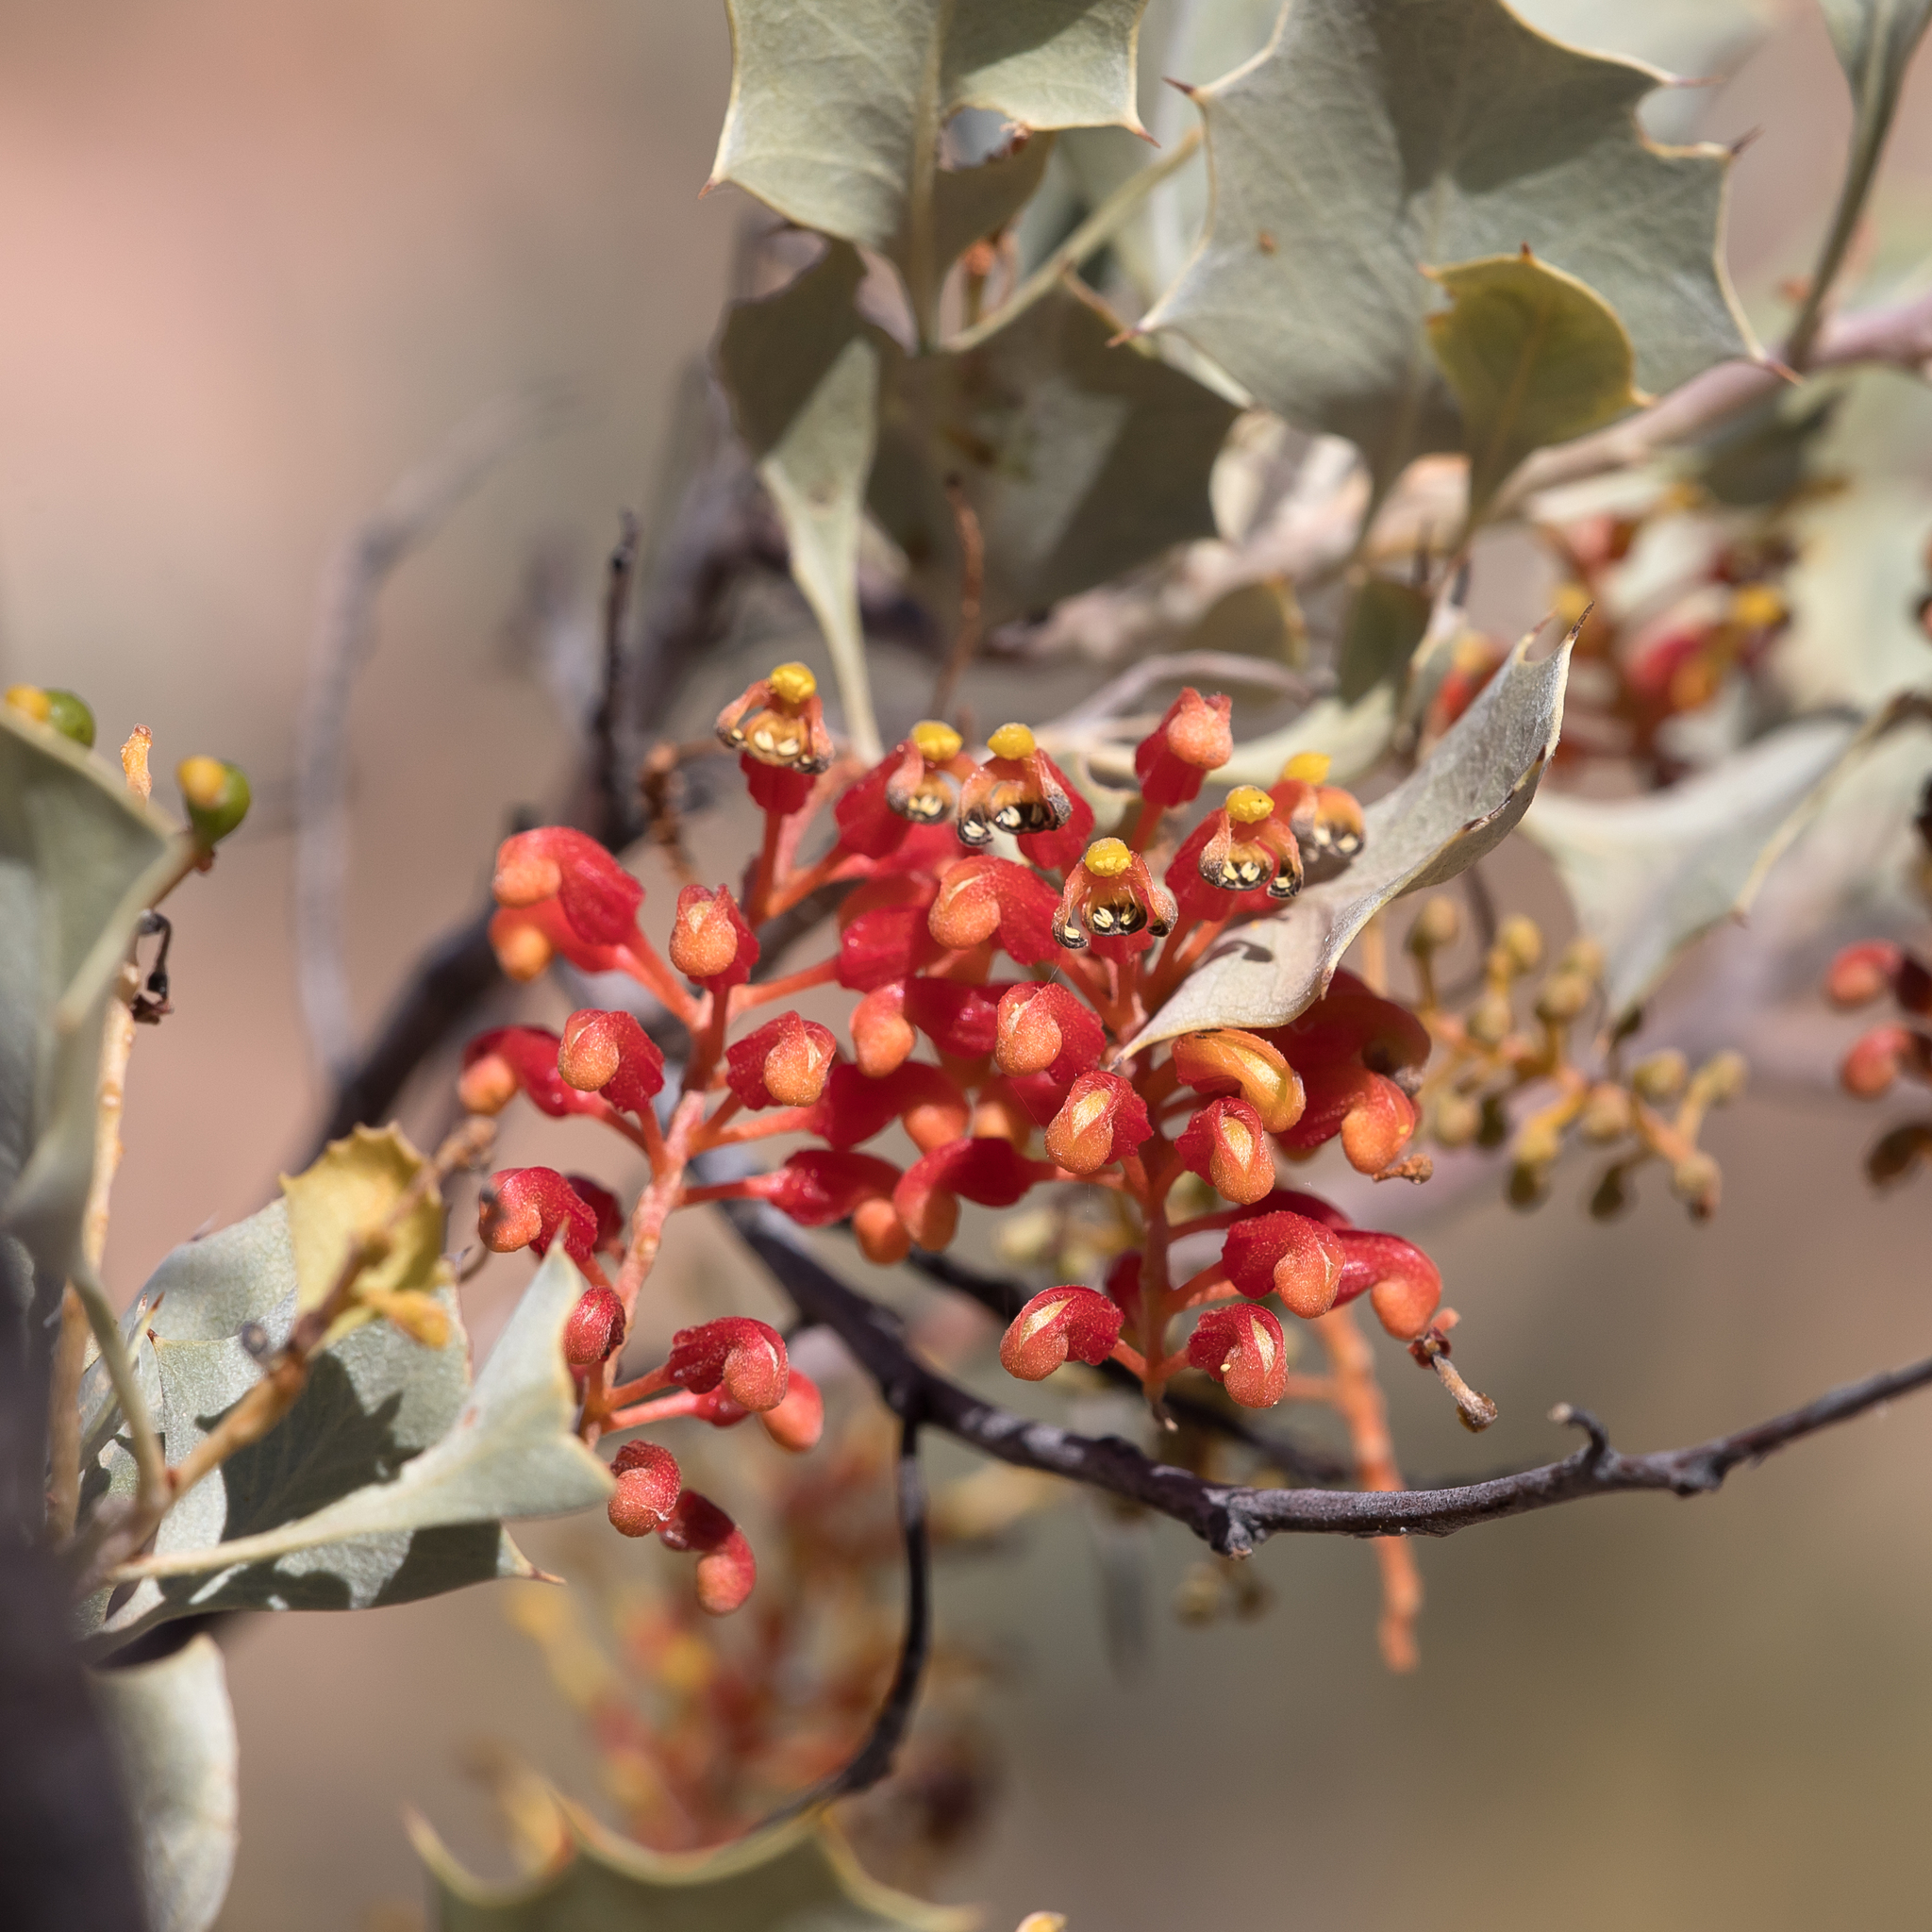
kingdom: Plantae
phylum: Tracheophyta
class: Magnoliopsida
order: Proteales
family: Proteaceae
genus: Grevillea
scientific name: Grevillea wickhamii
